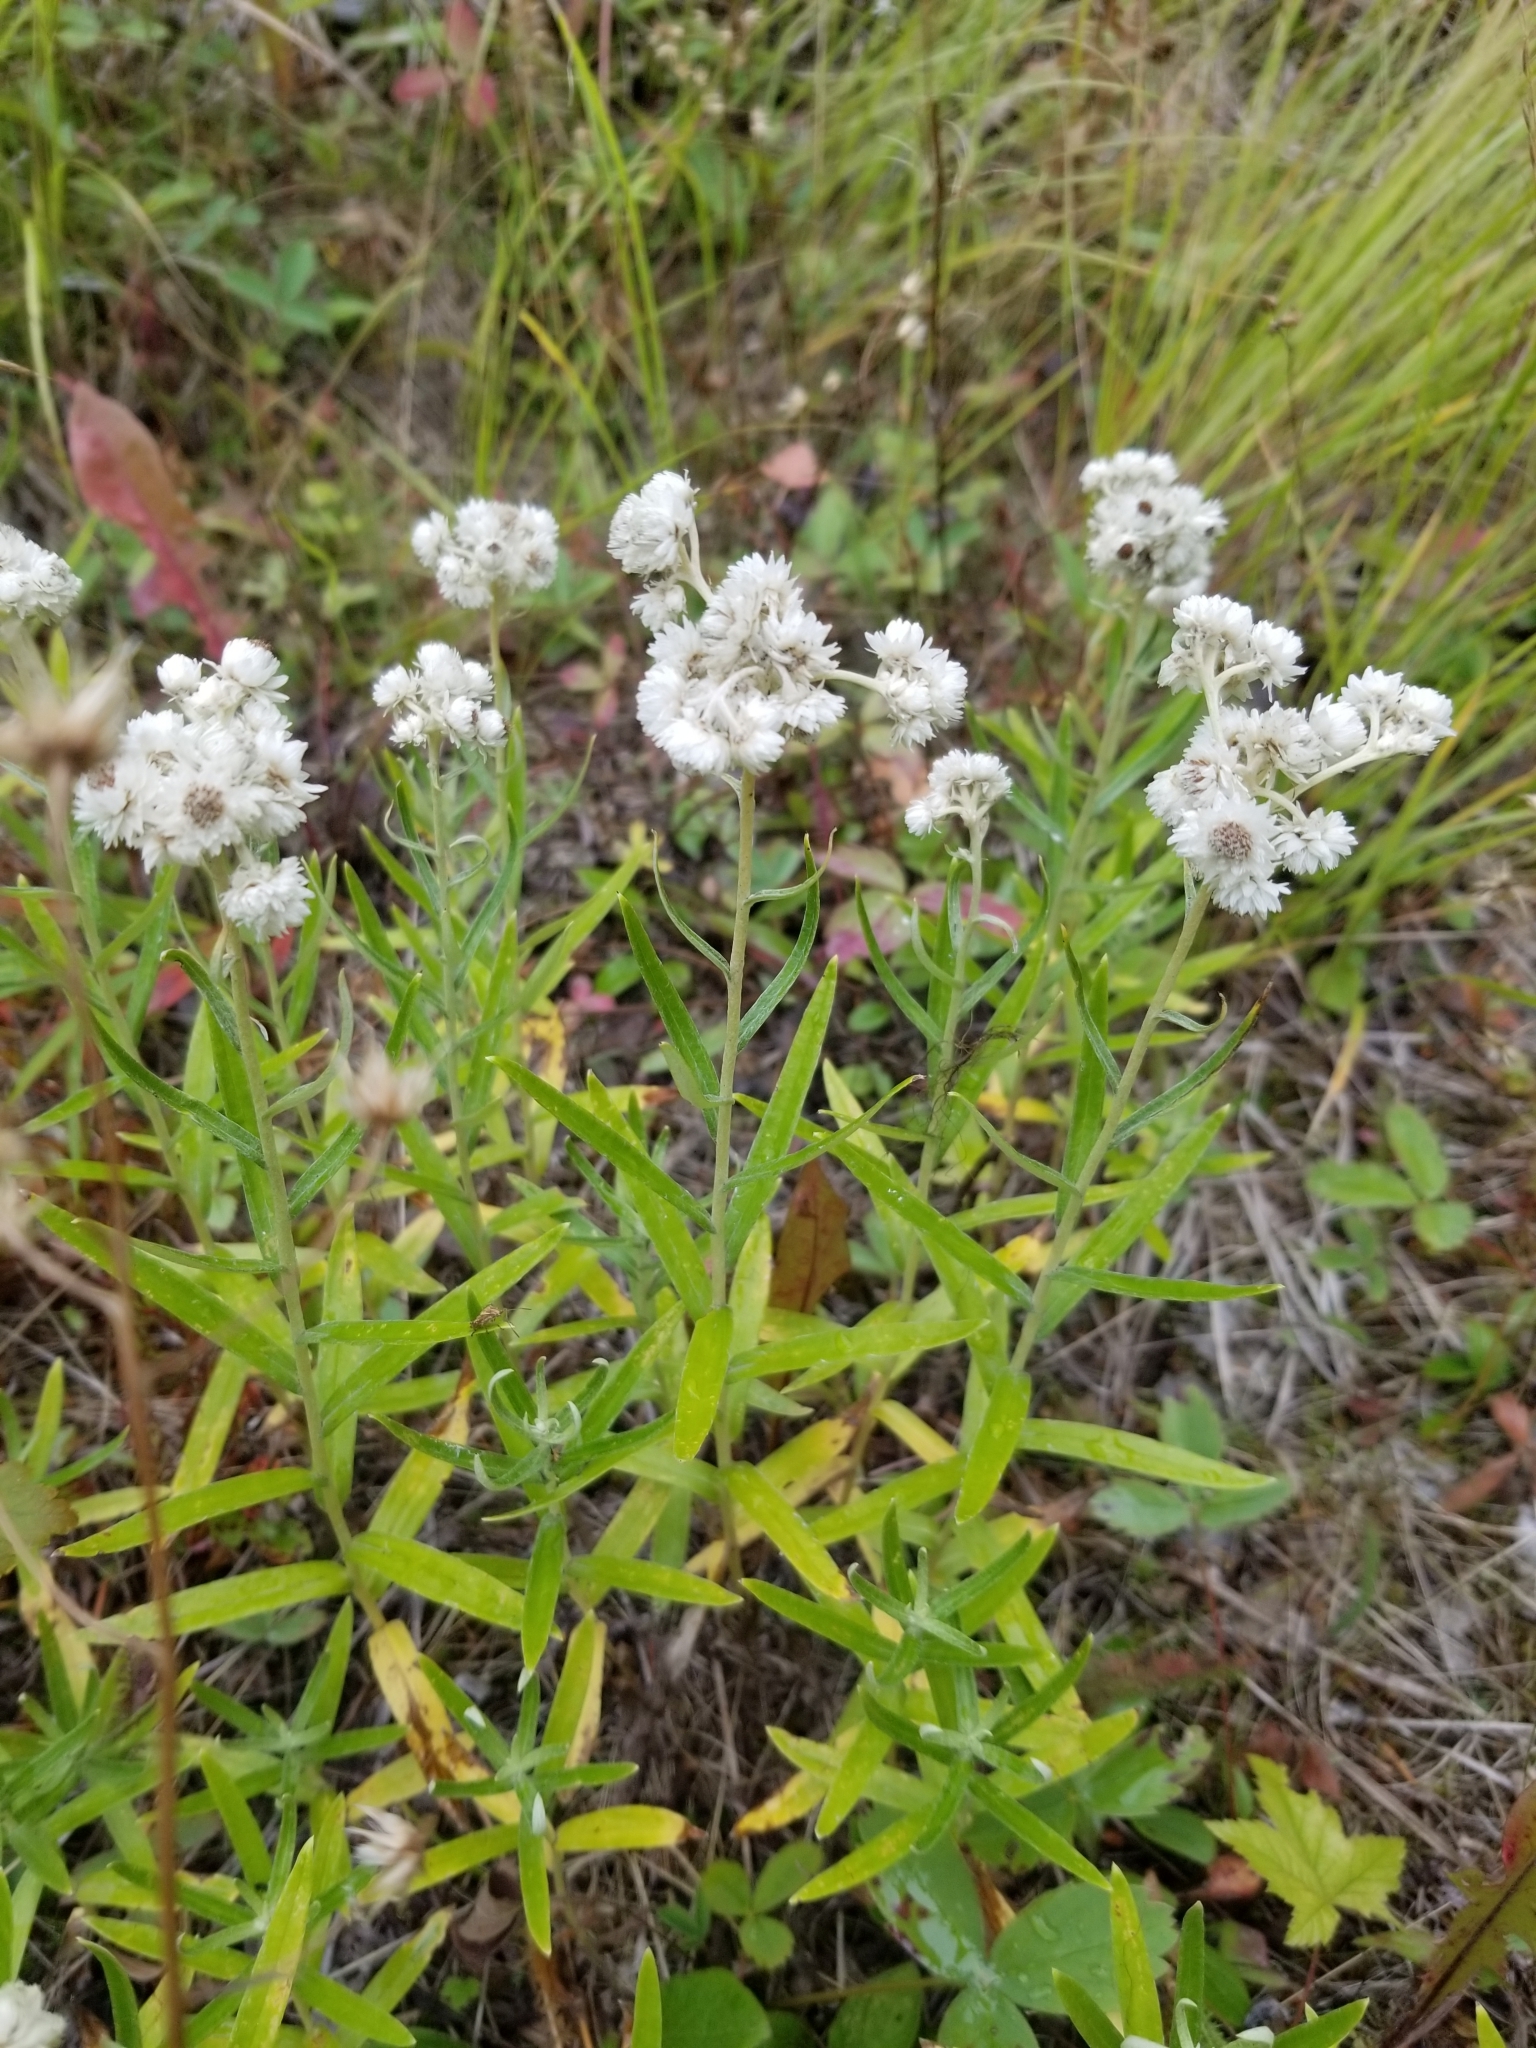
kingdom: Plantae
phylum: Tracheophyta
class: Magnoliopsida
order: Asterales
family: Asteraceae
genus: Anaphalis
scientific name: Anaphalis margaritacea
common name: Pearly everlasting
